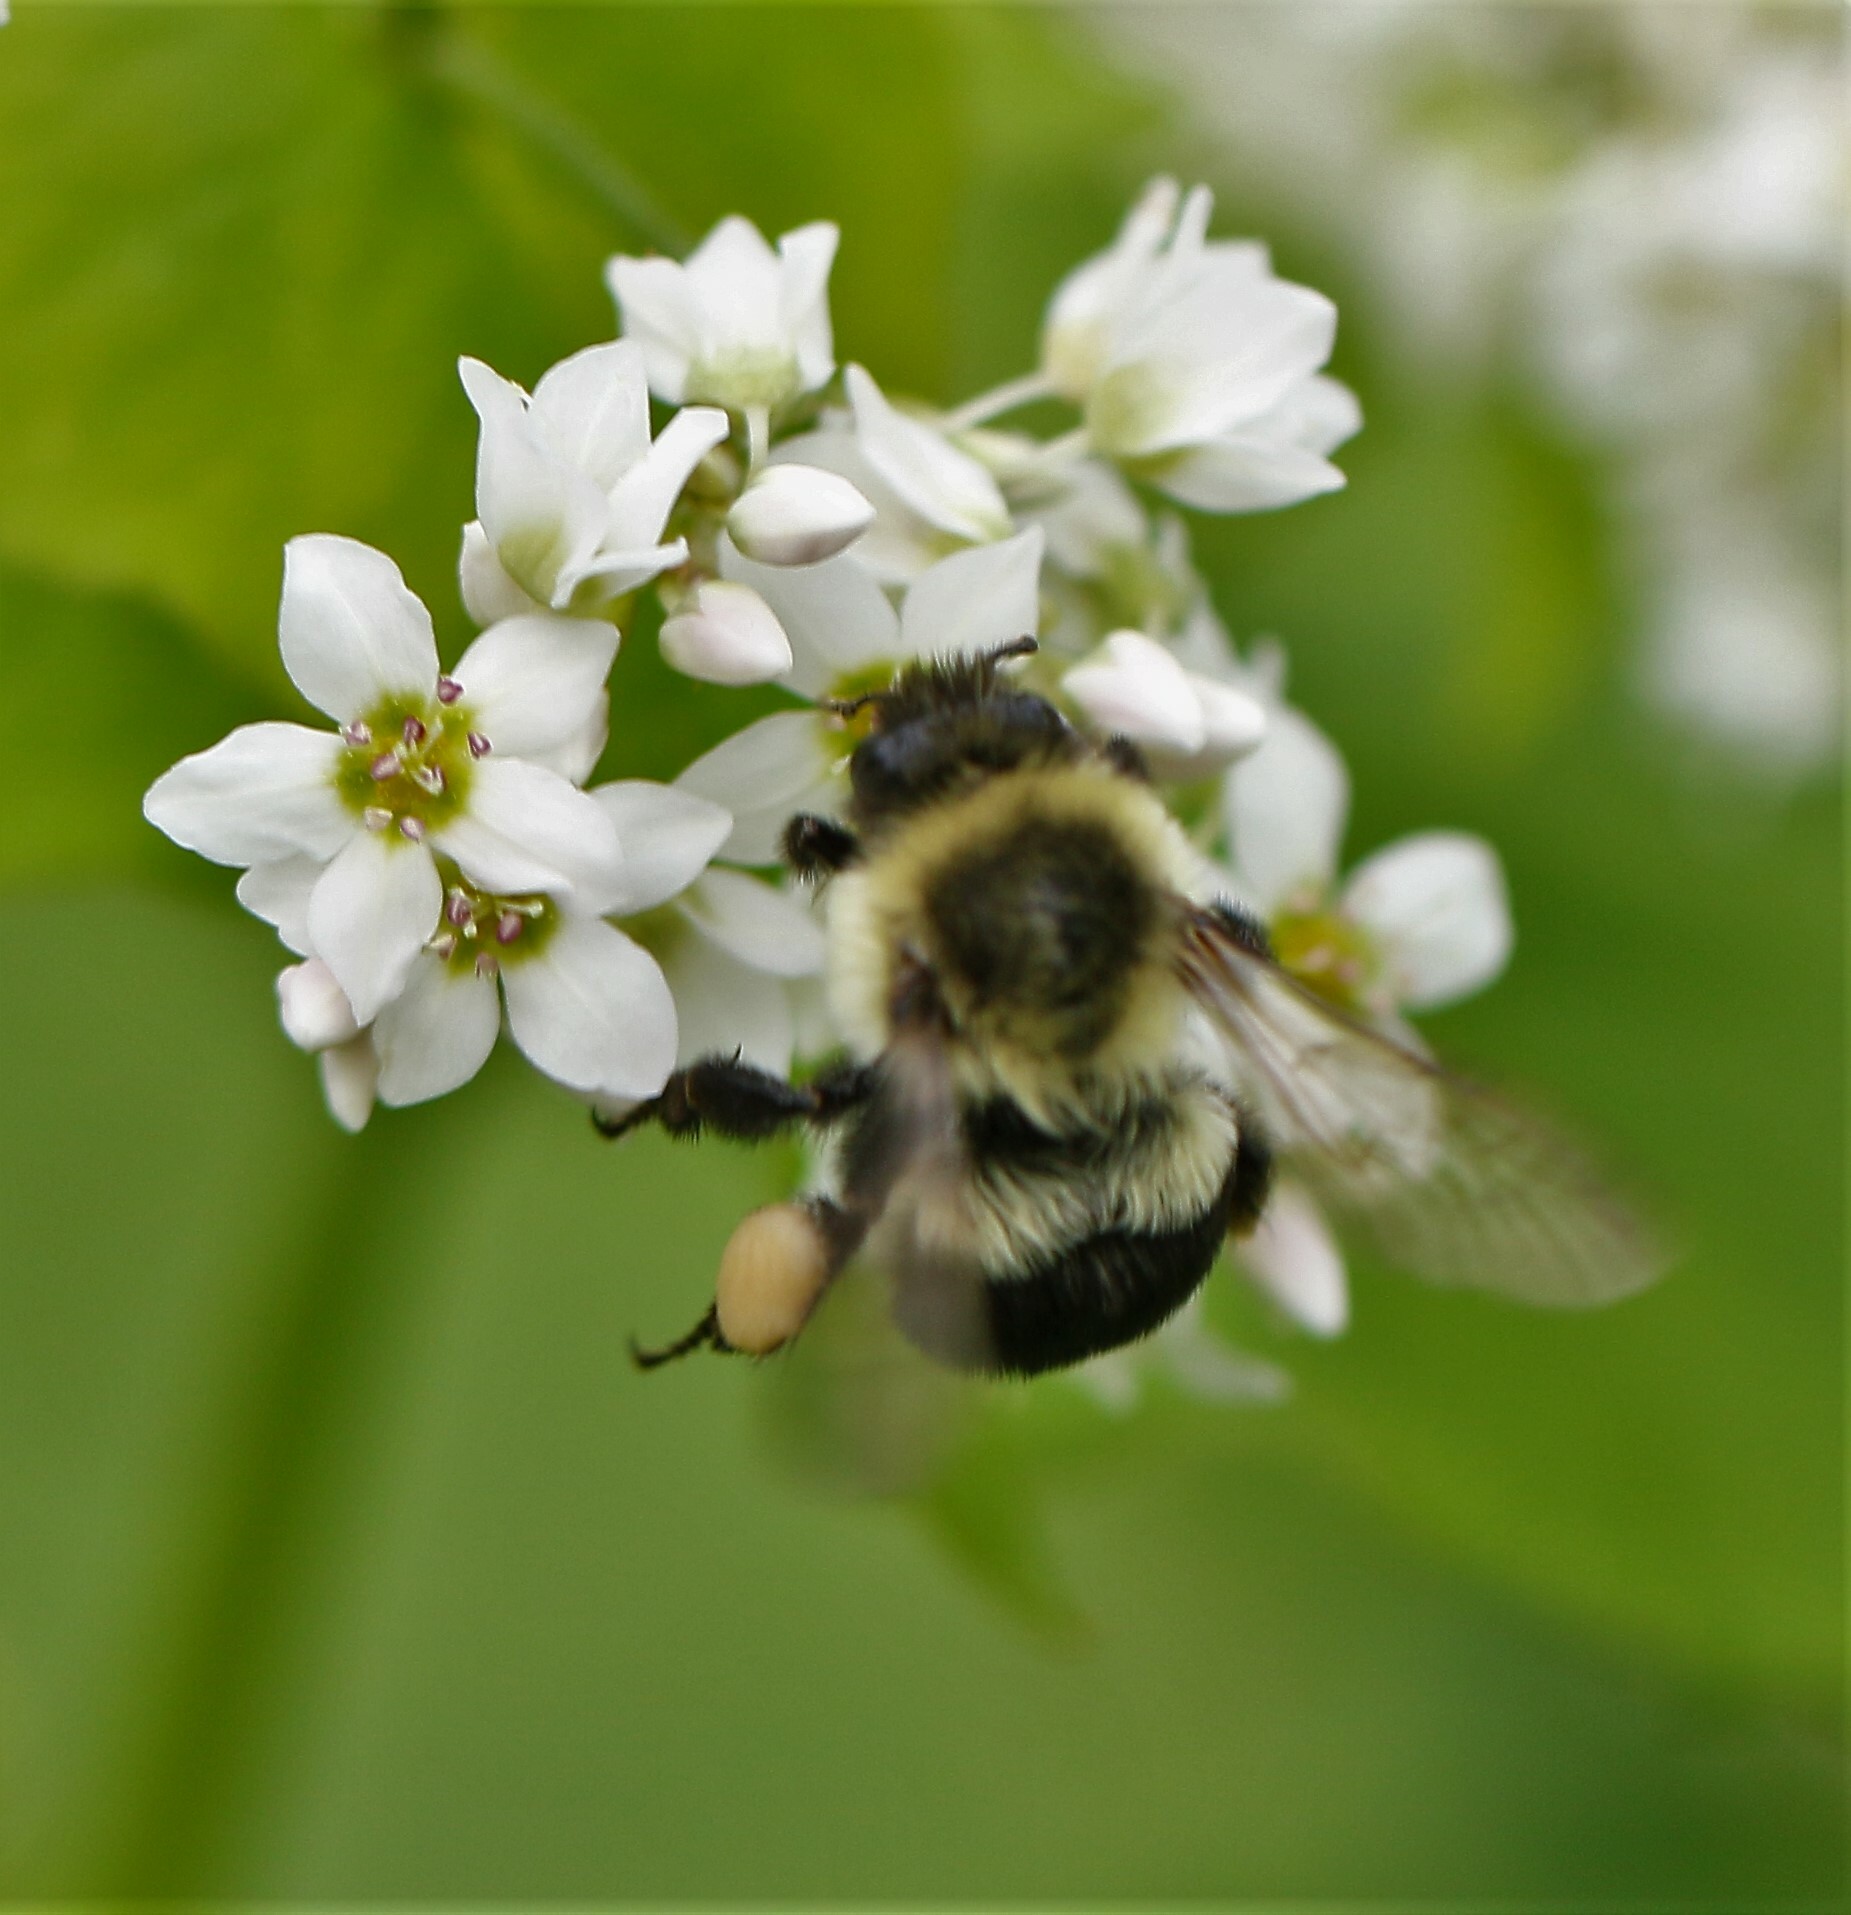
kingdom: Animalia
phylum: Arthropoda
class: Insecta
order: Hymenoptera
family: Apidae
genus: Bombus
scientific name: Bombus impatiens
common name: Common eastern bumble bee
